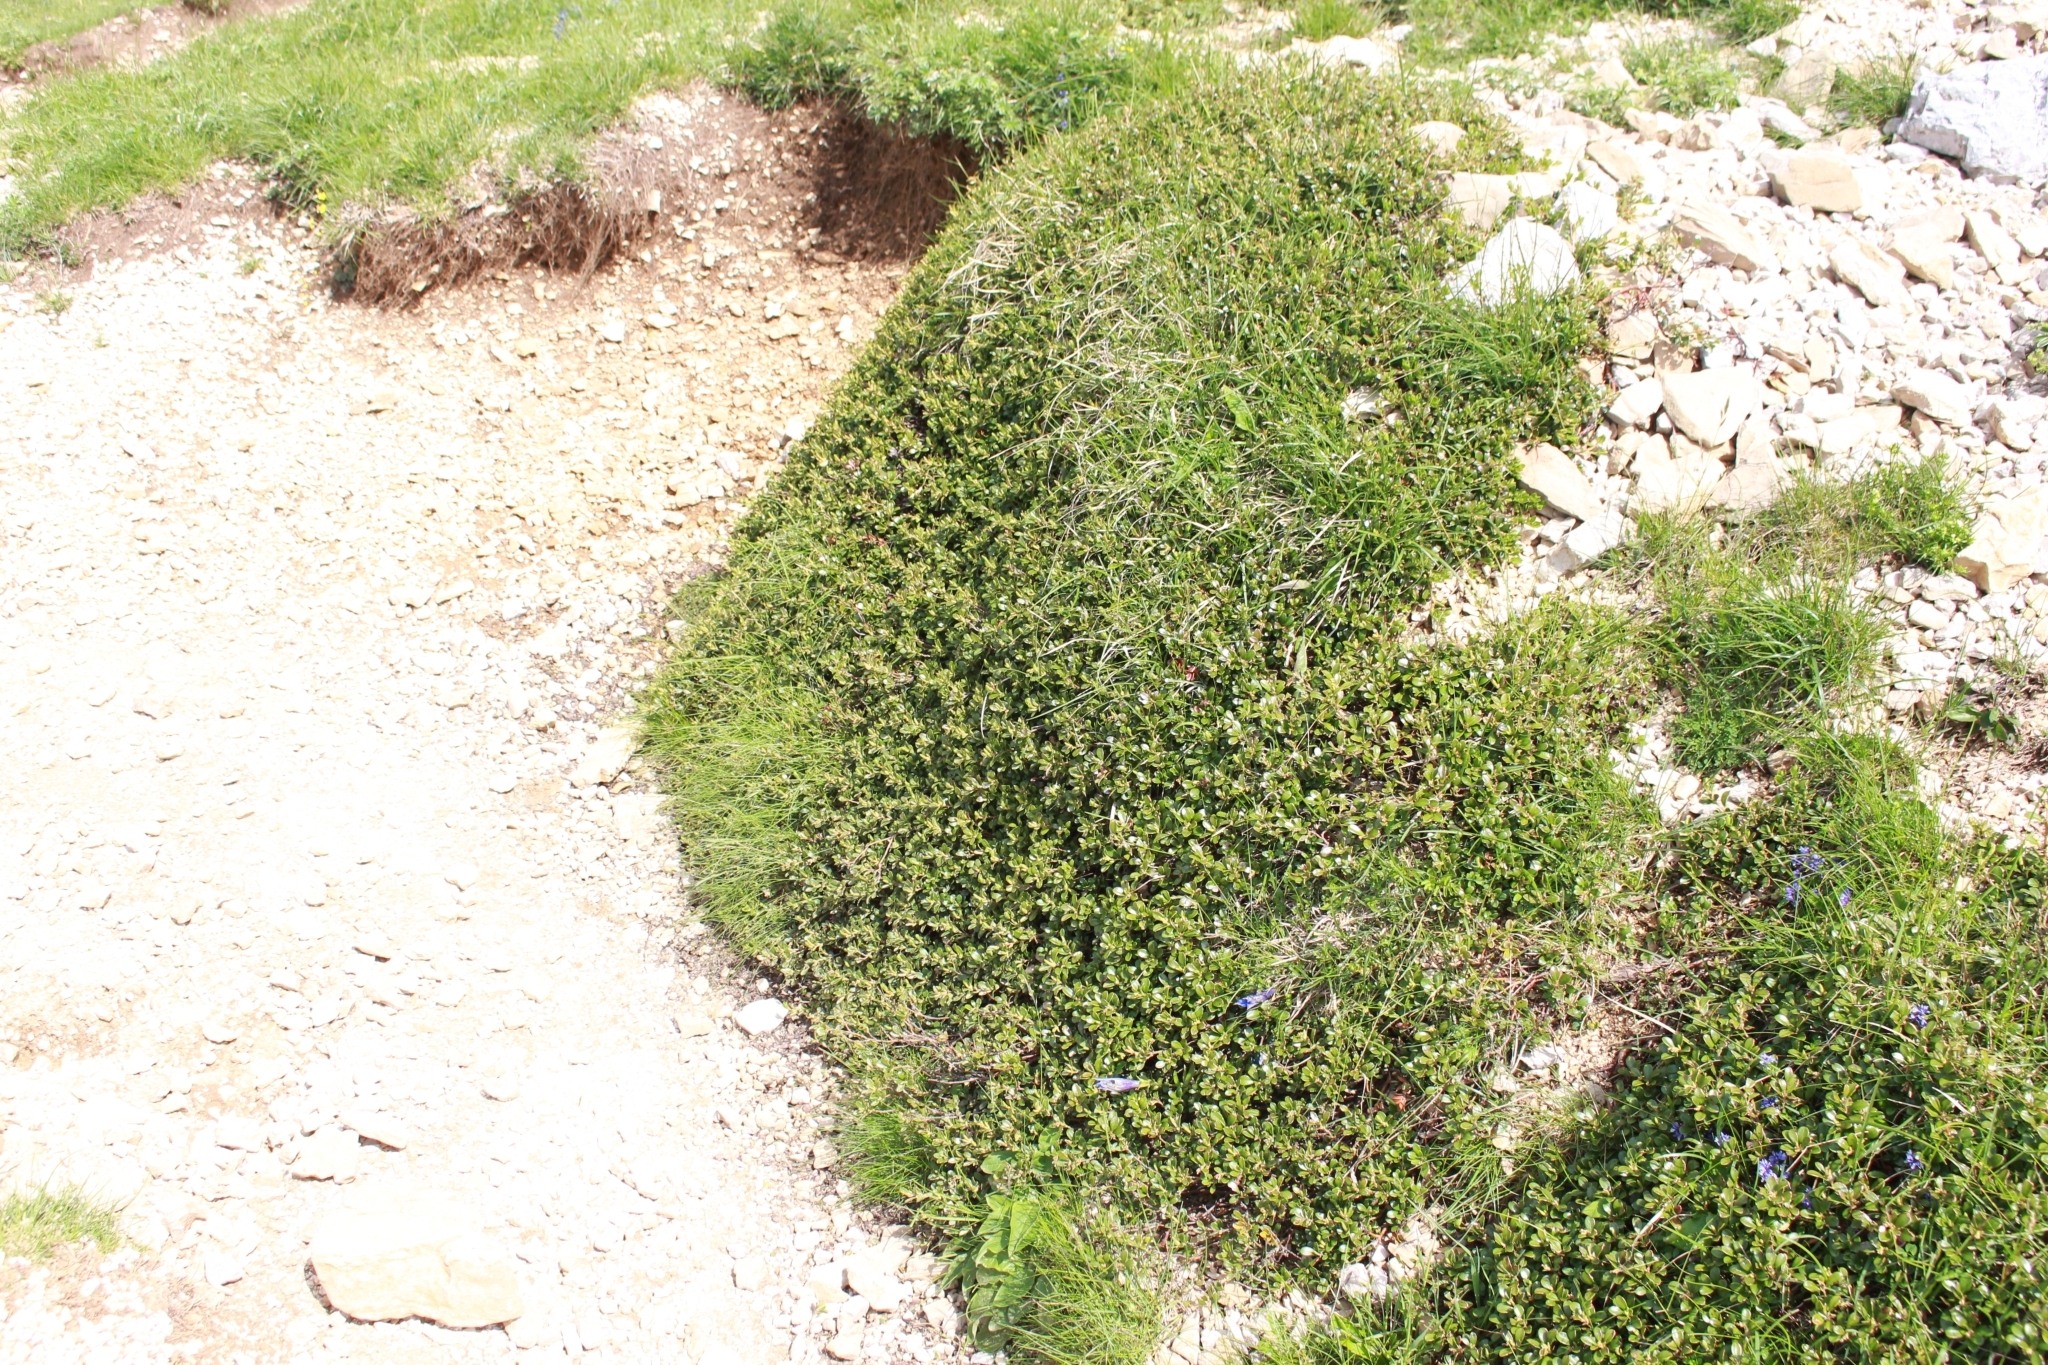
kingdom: Plantae
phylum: Tracheophyta
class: Magnoliopsida
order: Ericales
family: Ericaceae
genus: Arctostaphylos
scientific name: Arctostaphylos uva-ursi
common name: Bearberry
